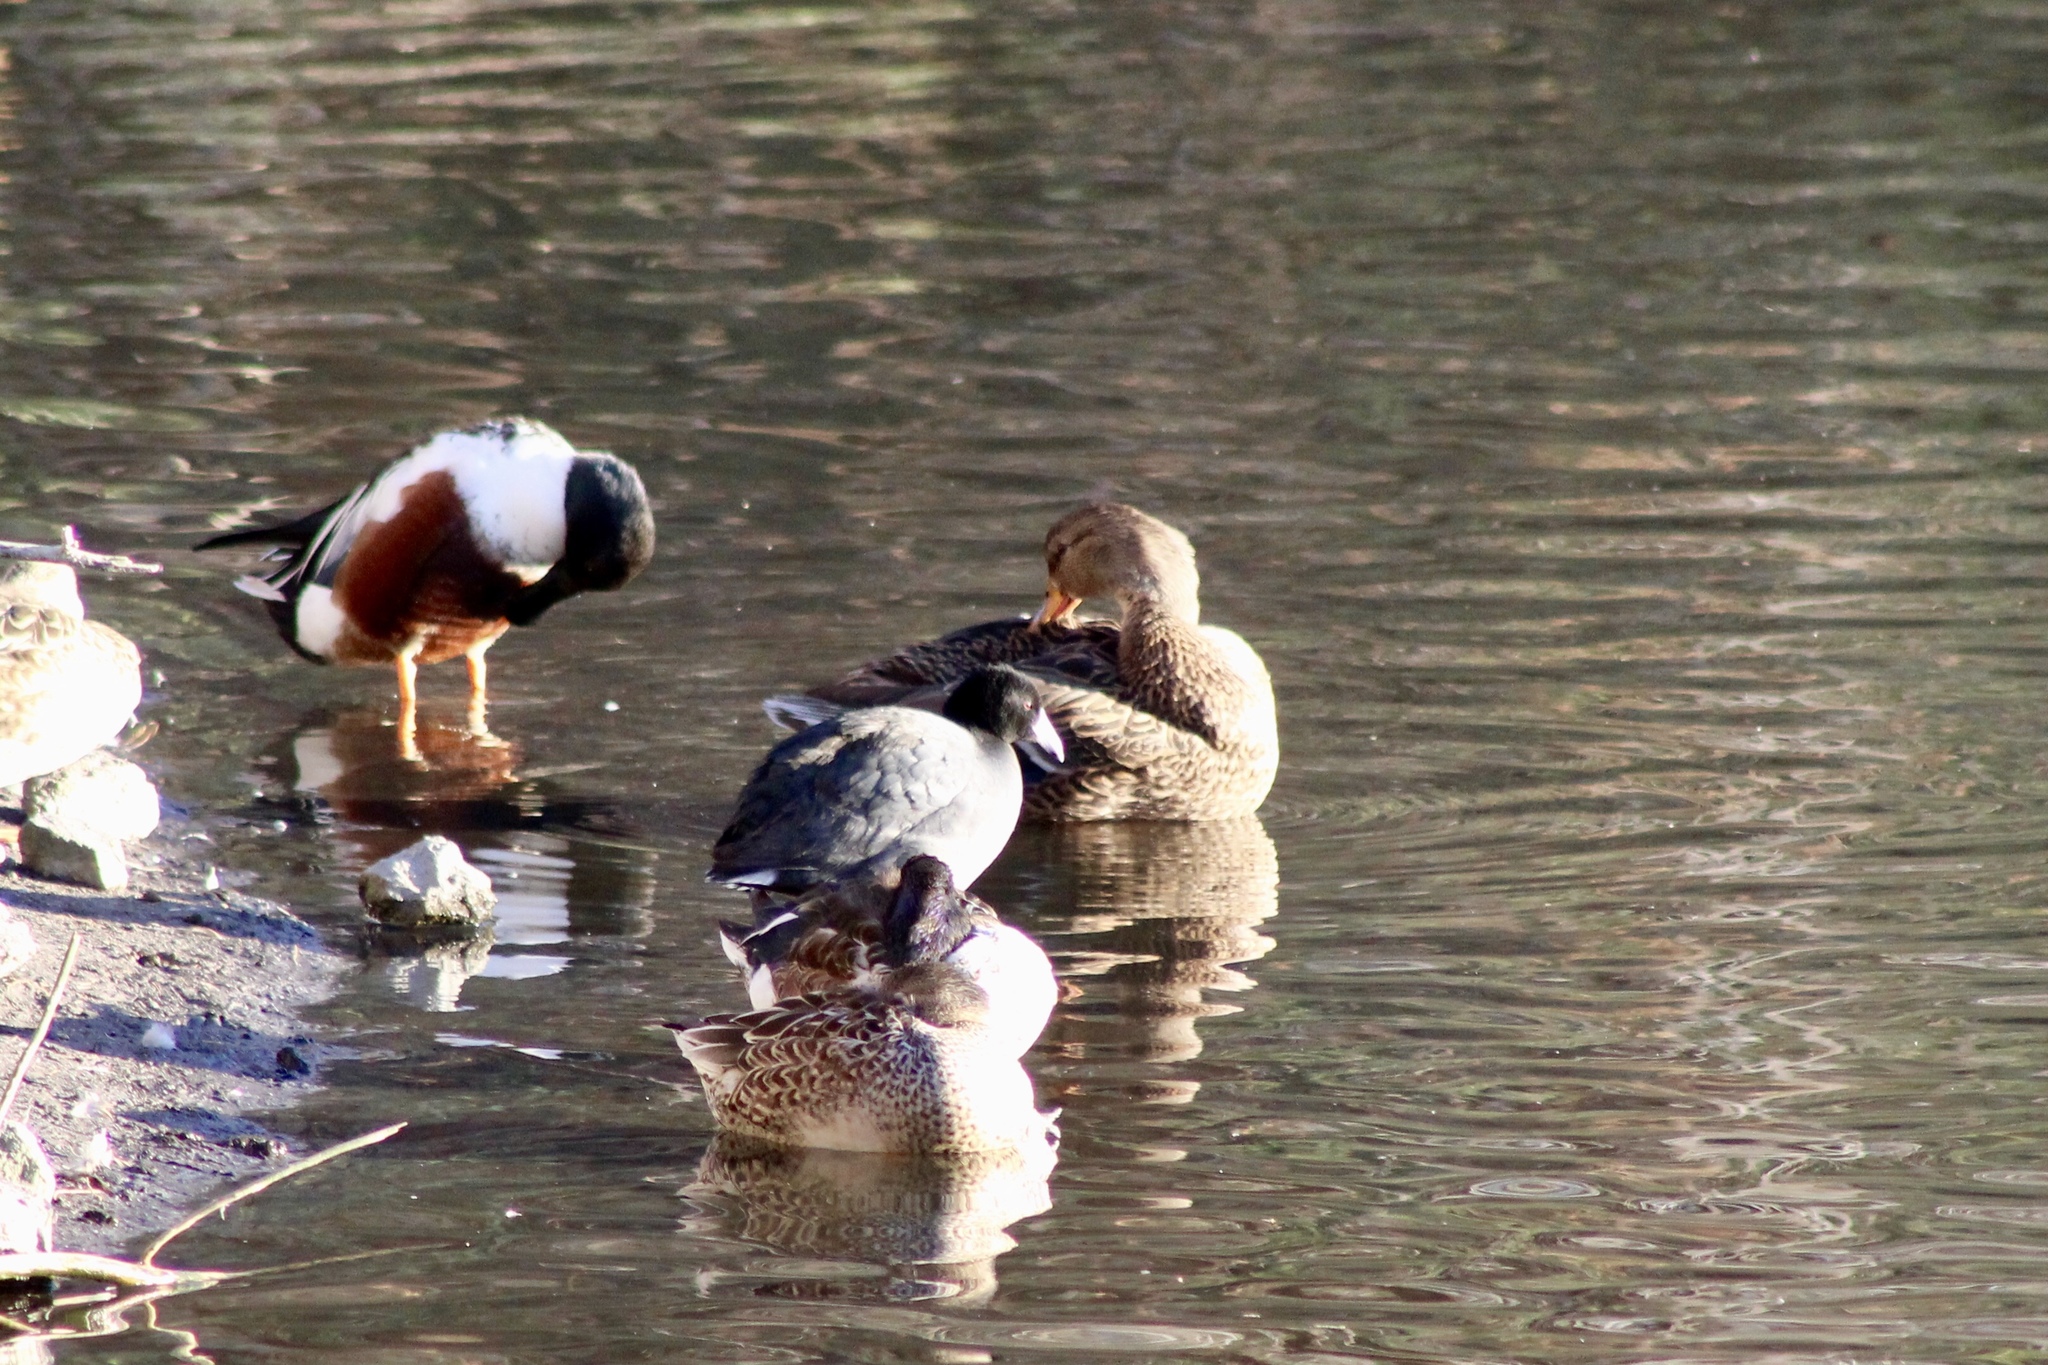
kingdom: Animalia
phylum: Chordata
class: Aves
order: Anseriformes
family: Anatidae
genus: Anas
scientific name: Anas platyrhynchos
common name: Mallard
